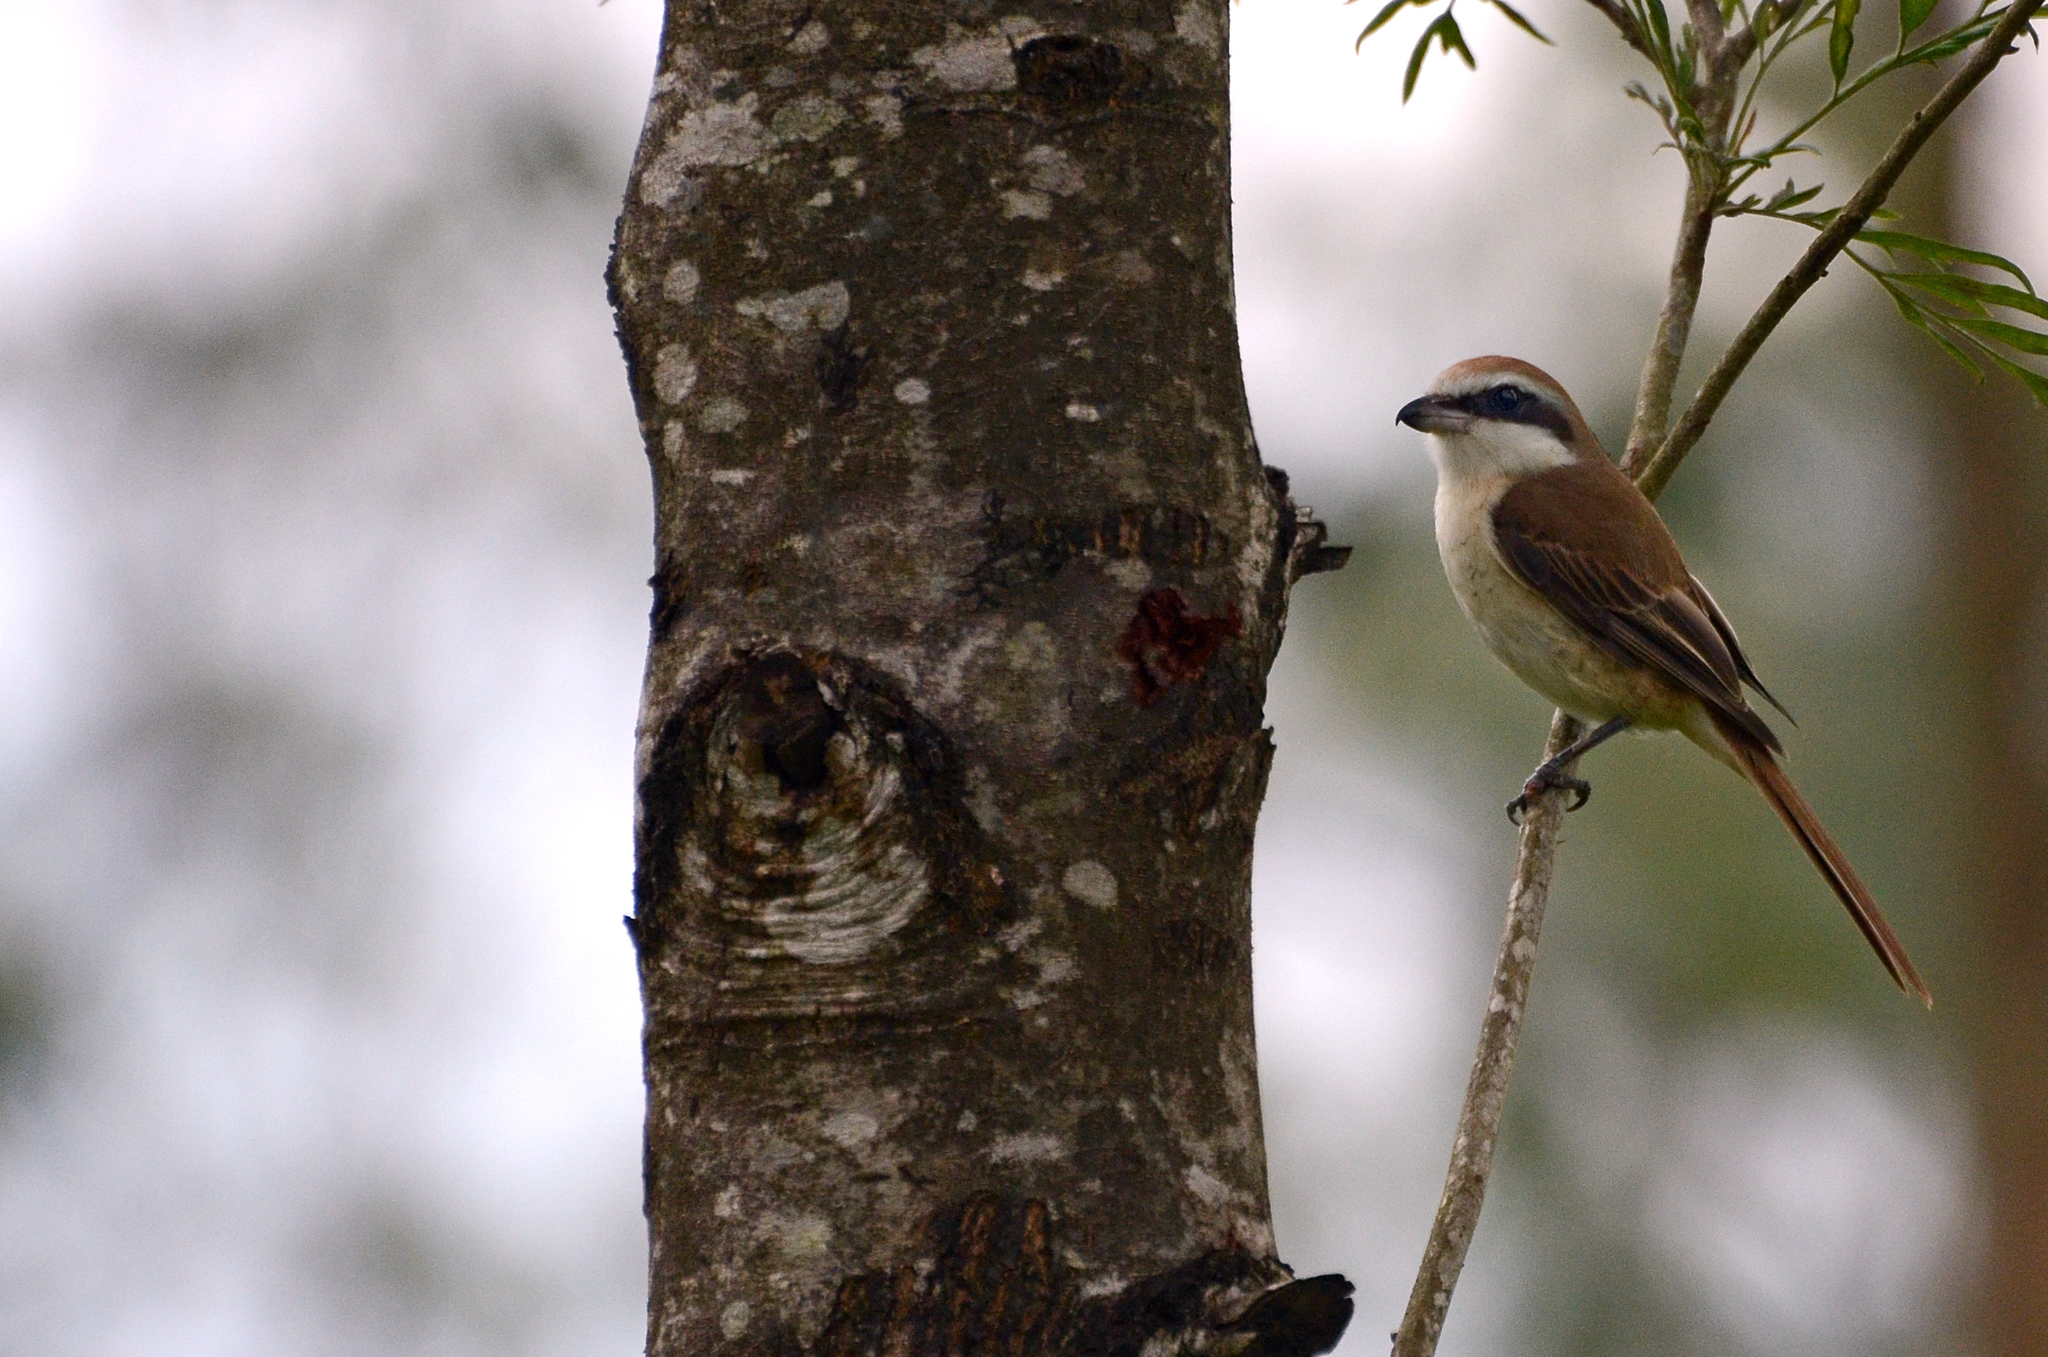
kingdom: Animalia
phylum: Chordata
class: Aves
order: Passeriformes
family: Laniidae
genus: Lanius
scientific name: Lanius cristatus
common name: Brown shrike
